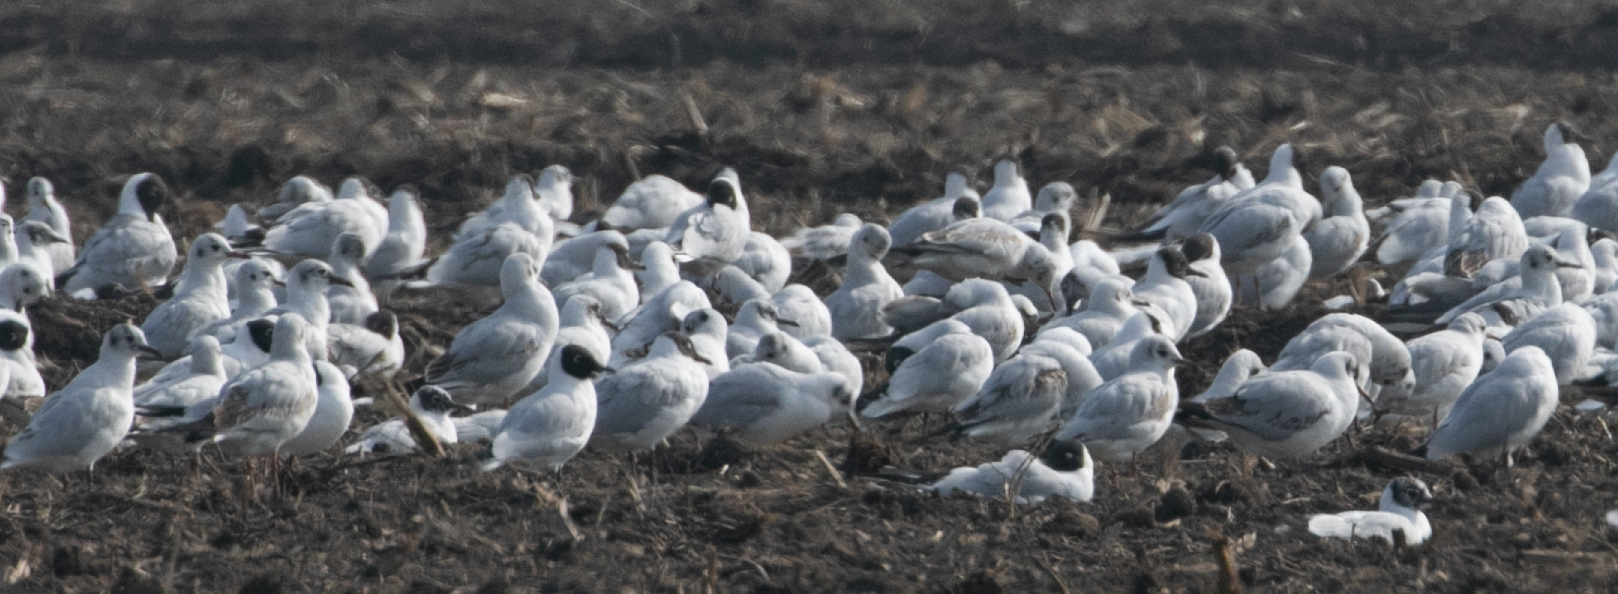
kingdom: Animalia
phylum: Chordata
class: Aves
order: Charadriiformes
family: Laridae
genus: Chroicocephalus
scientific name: Chroicocephalus ridibundus
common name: Black-headed gull
